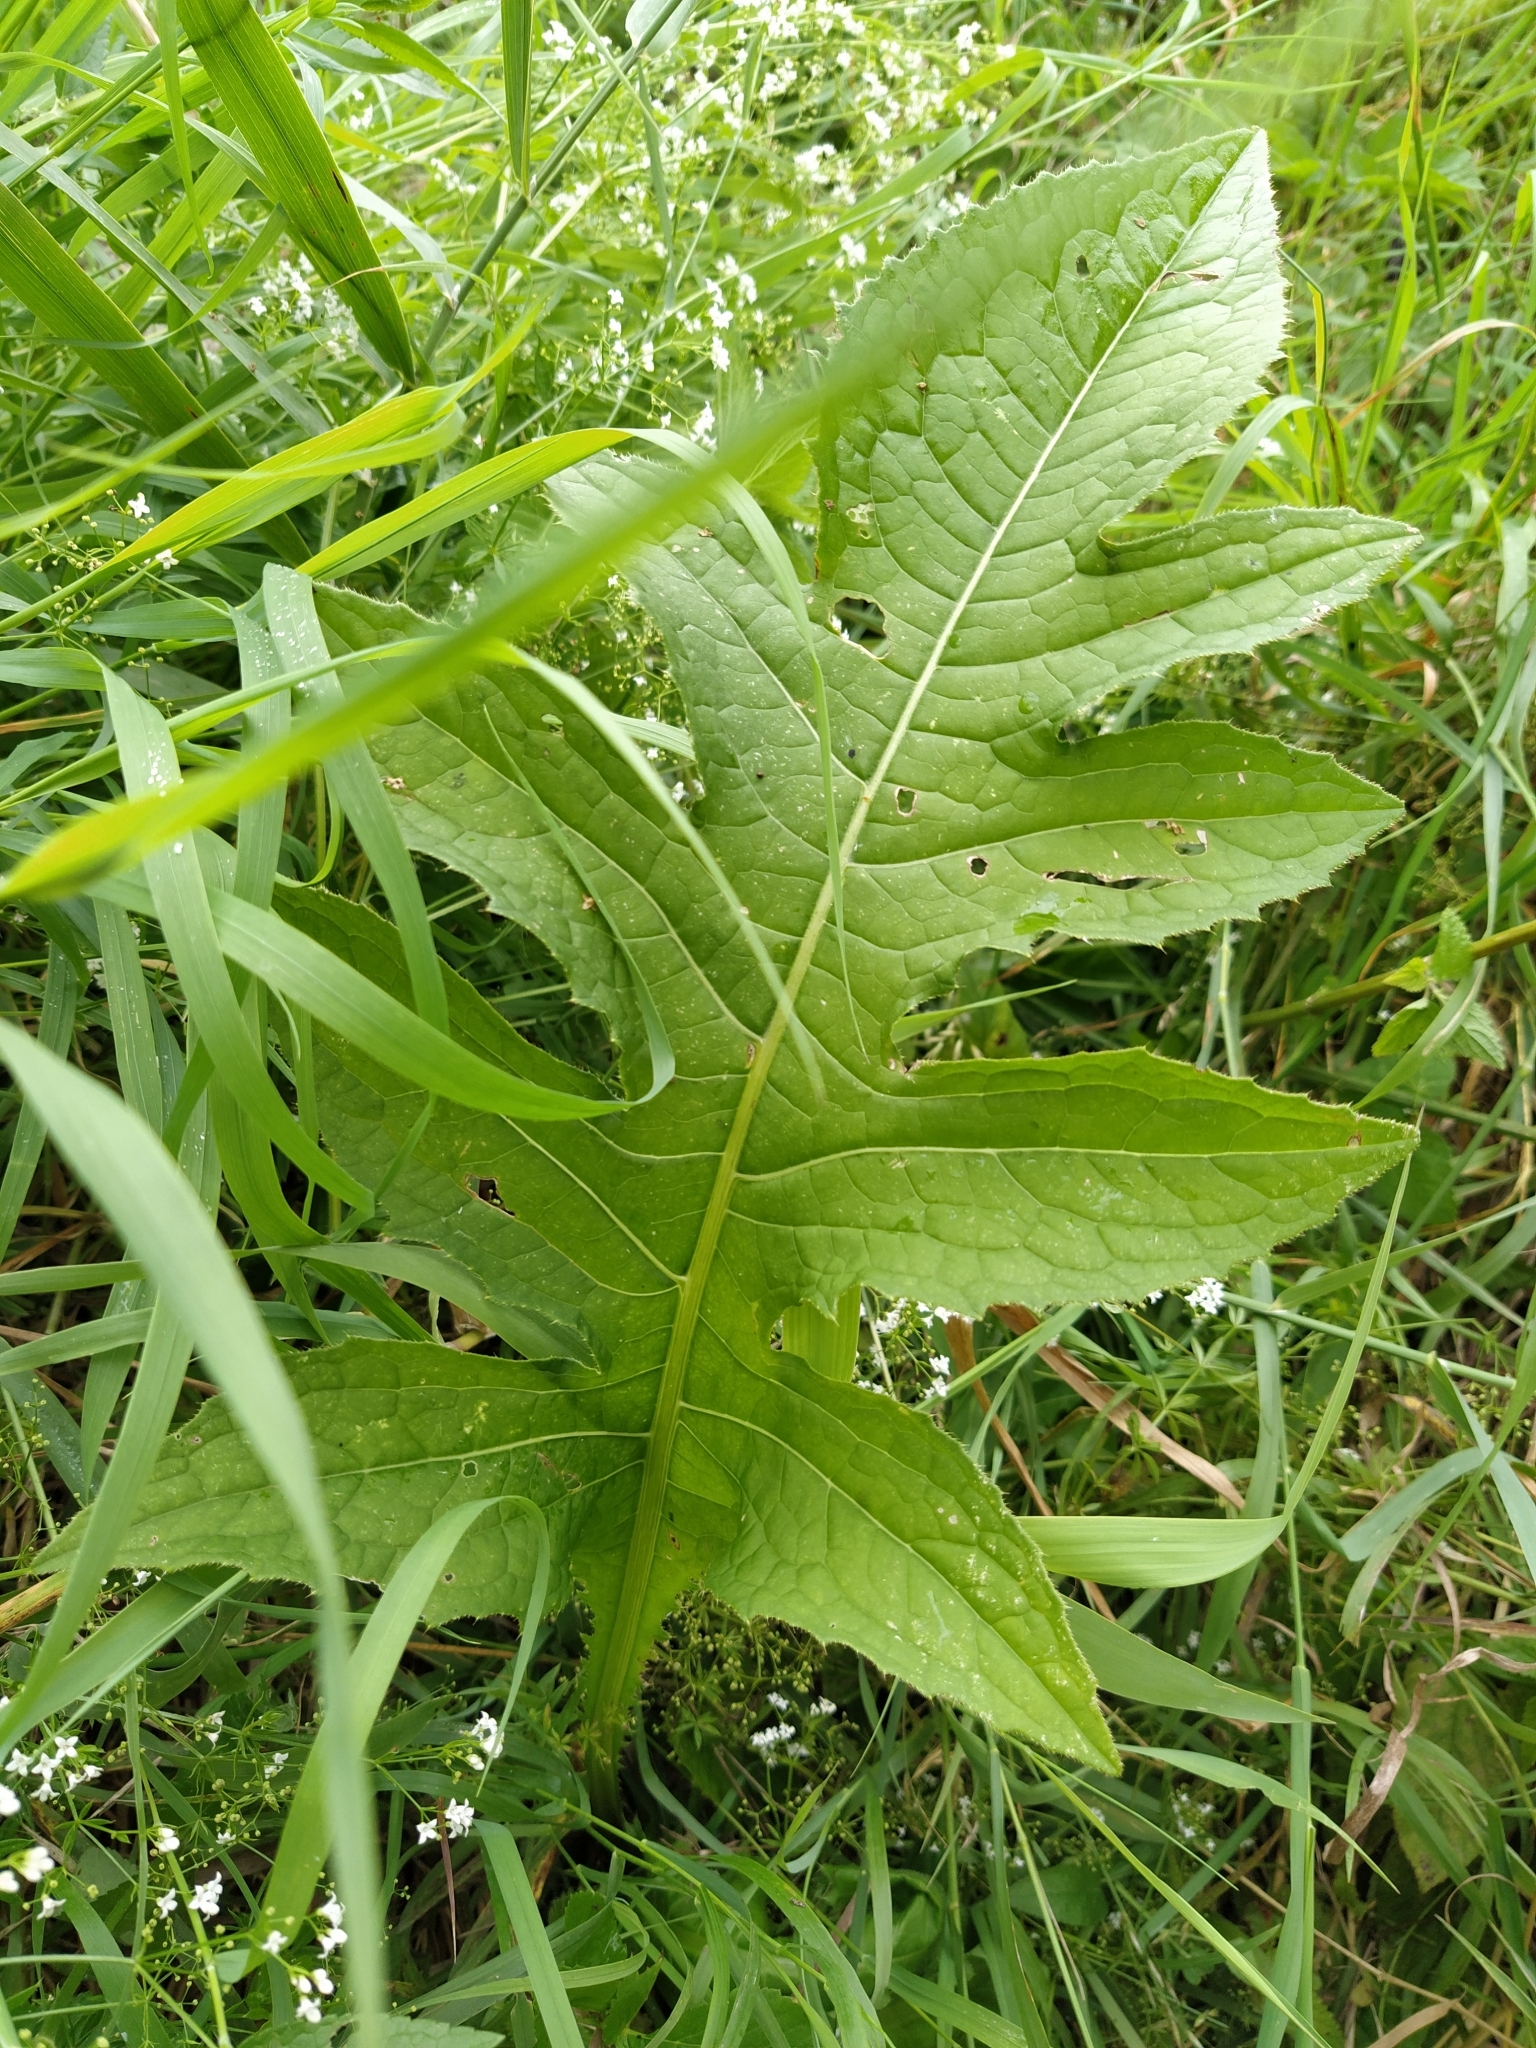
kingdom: Plantae
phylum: Tracheophyta
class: Magnoliopsida
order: Asterales
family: Asteraceae
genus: Cirsium
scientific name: Cirsium oleraceum
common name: Cabbage thistle
